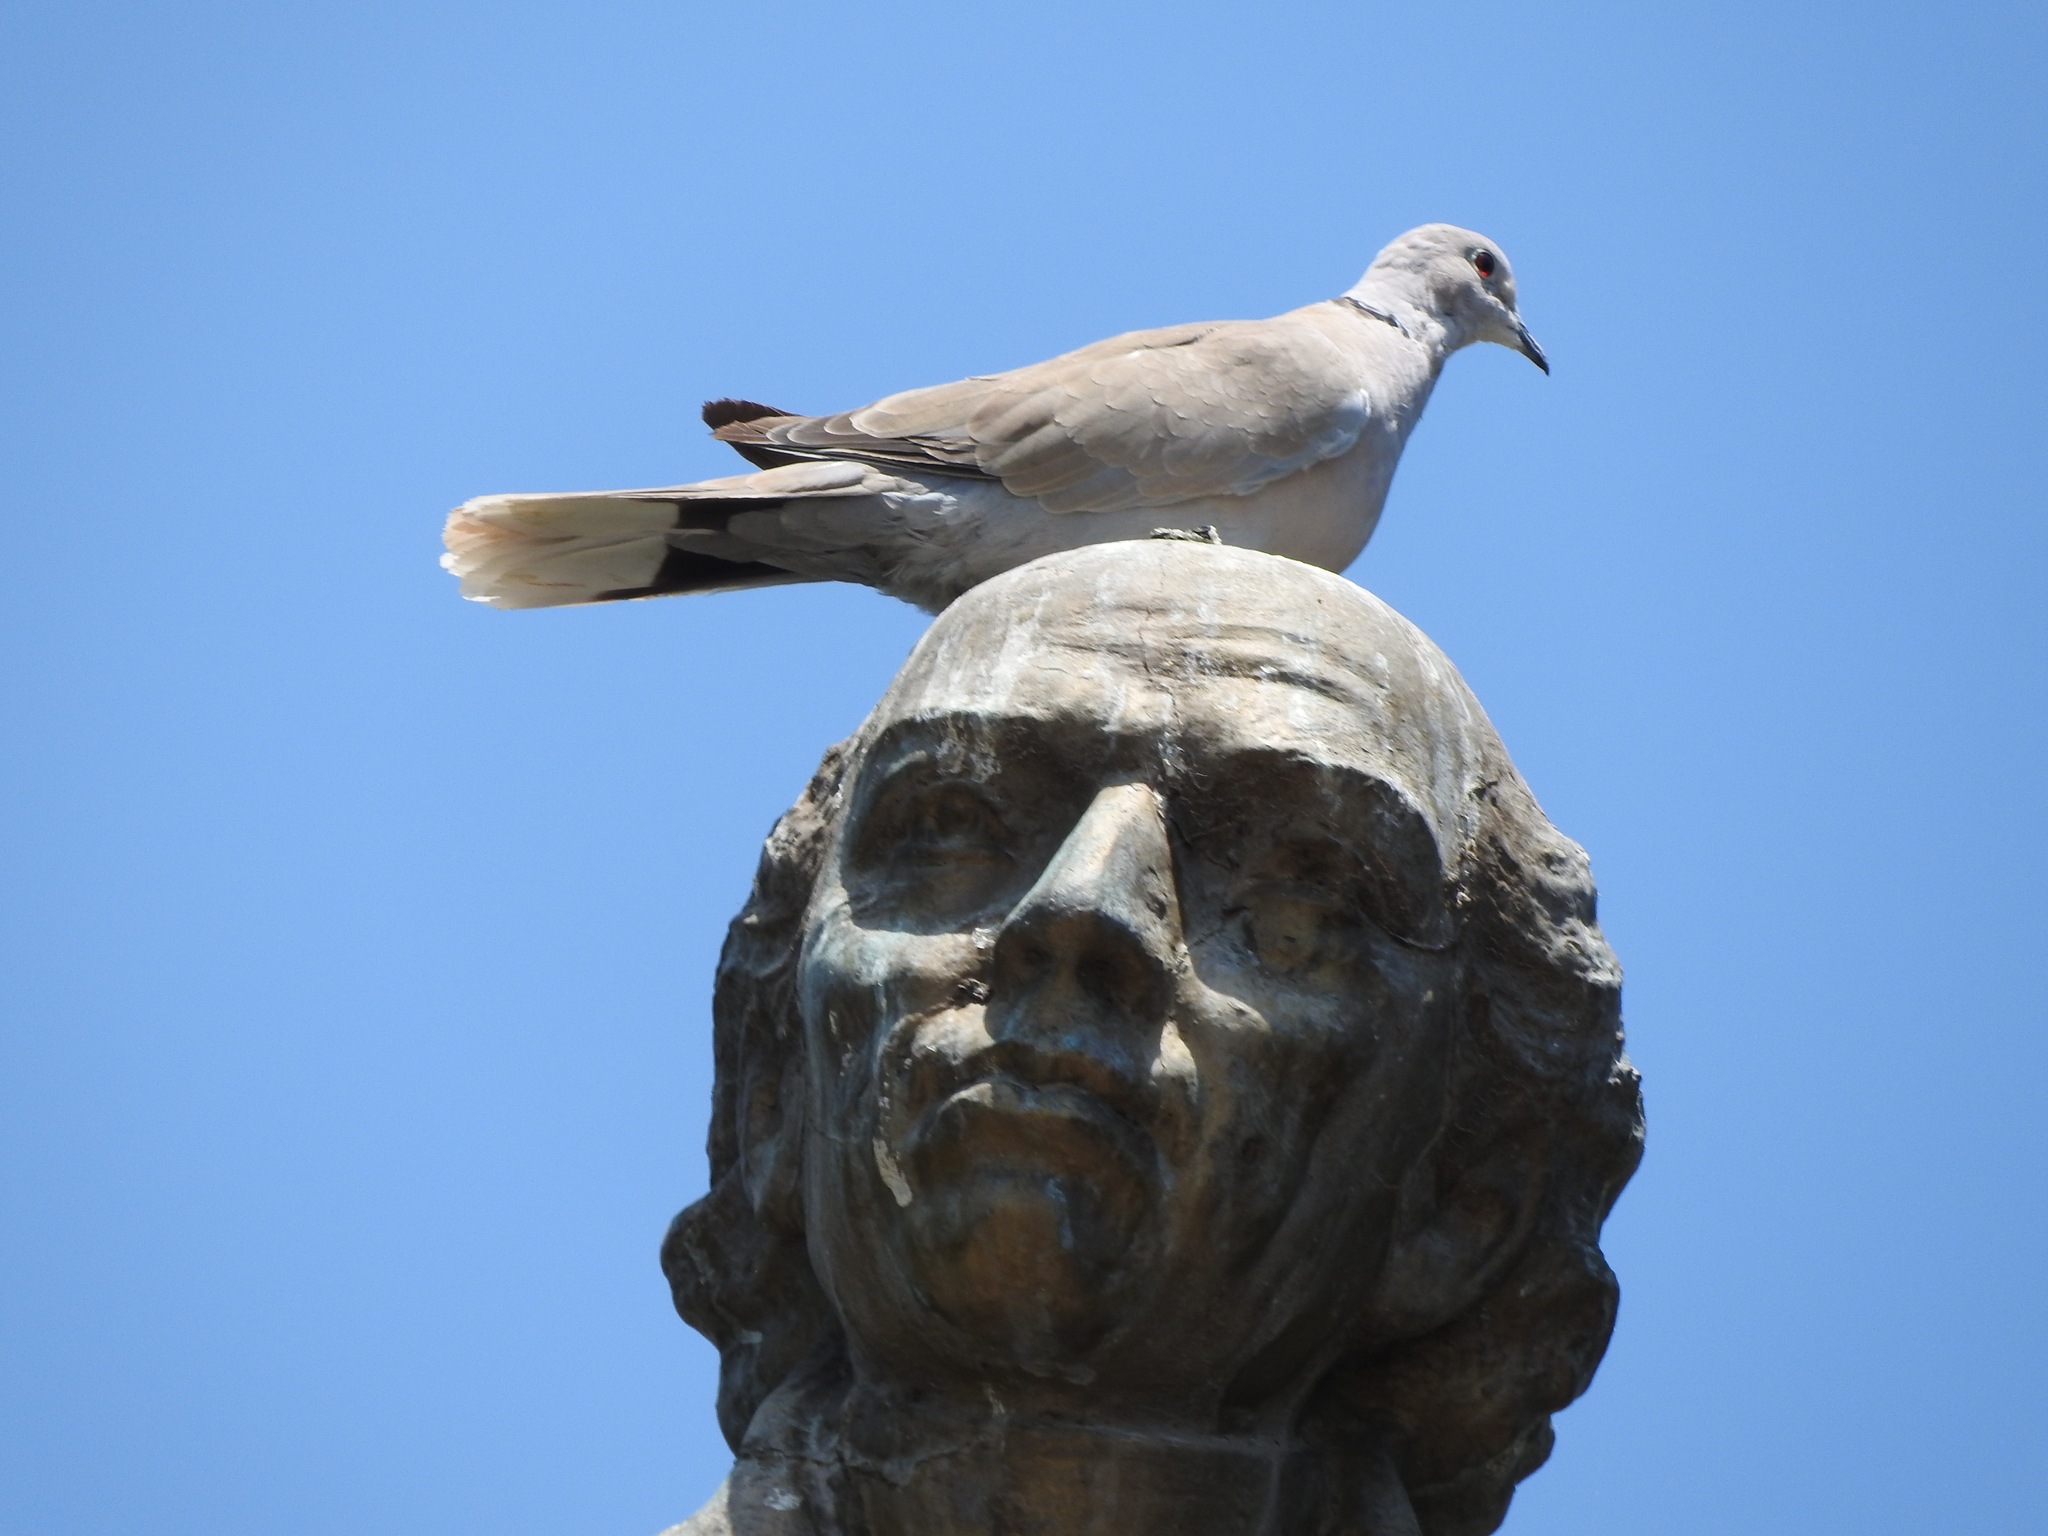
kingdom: Animalia
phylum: Chordata
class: Aves
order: Columbiformes
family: Columbidae
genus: Streptopelia
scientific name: Streptopelia decaocto
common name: Eurasian collared dove
